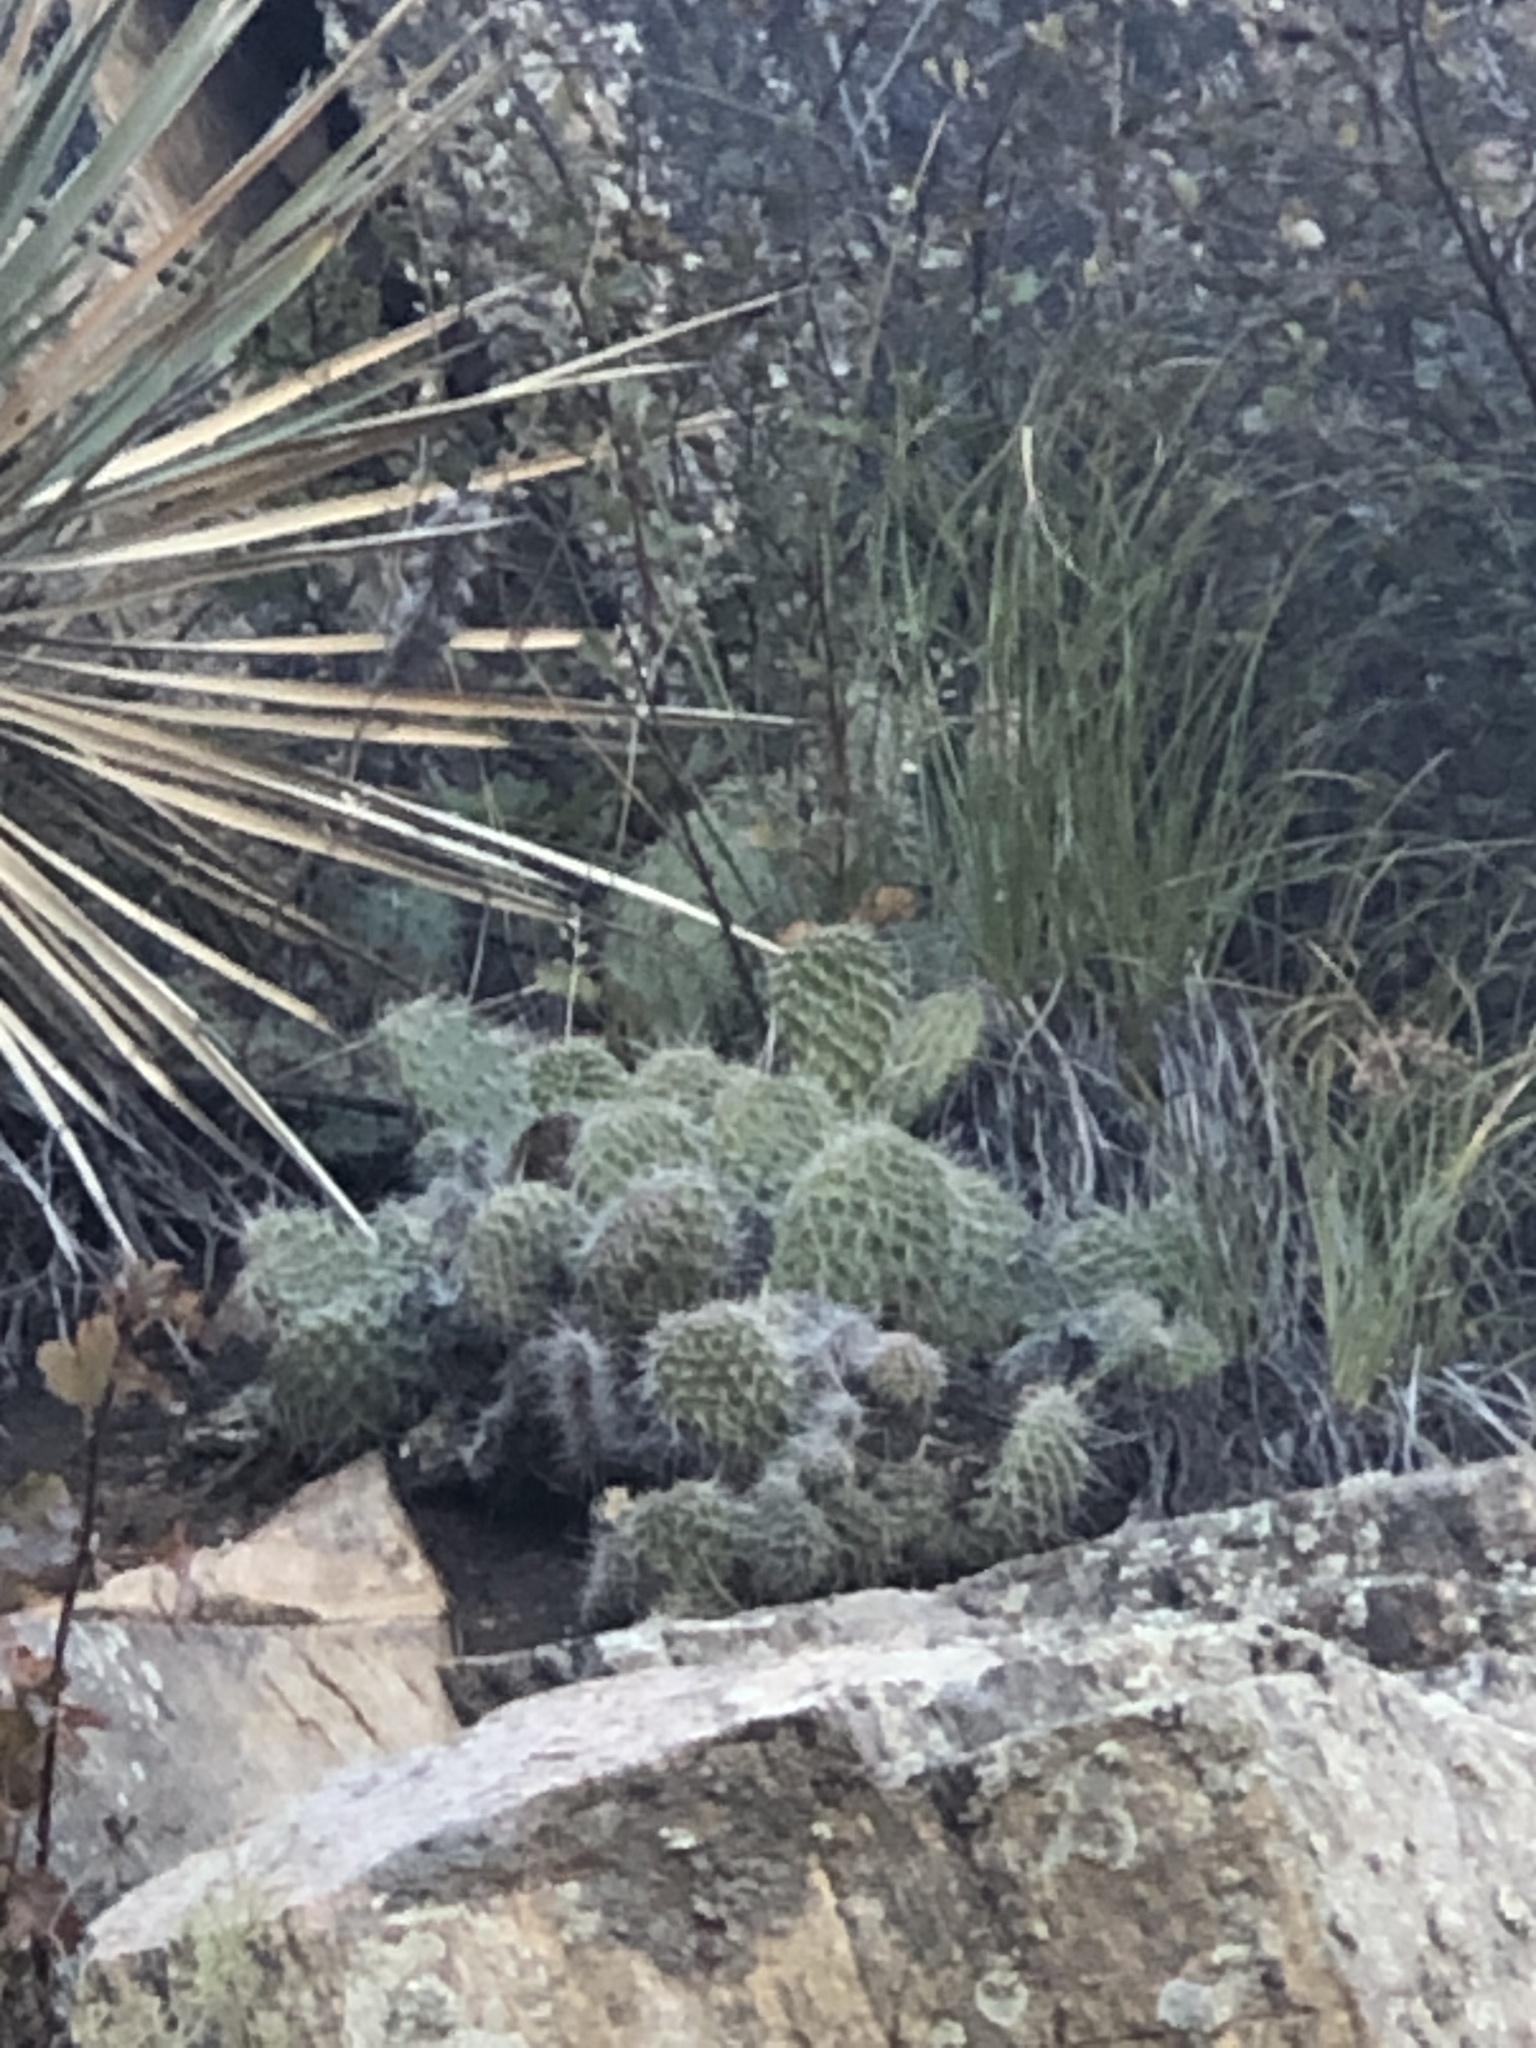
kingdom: Plantae
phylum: Tracheophyta
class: Magnoliopsida
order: Caryophyllales
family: Cactaceae
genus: Opuntia
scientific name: Opuntia polyacantha
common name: Plains prickly-pear
